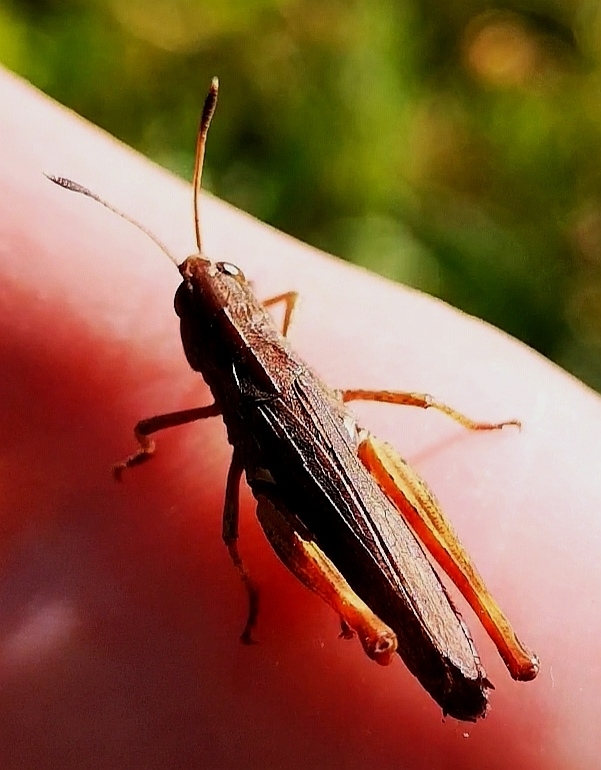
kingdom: Animalia
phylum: Arthropoda
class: Insecta
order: Orthoptera
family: Acrididae
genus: Gomphocerippus
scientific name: Gomphocerippus rufus
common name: Rufous grasshopper
